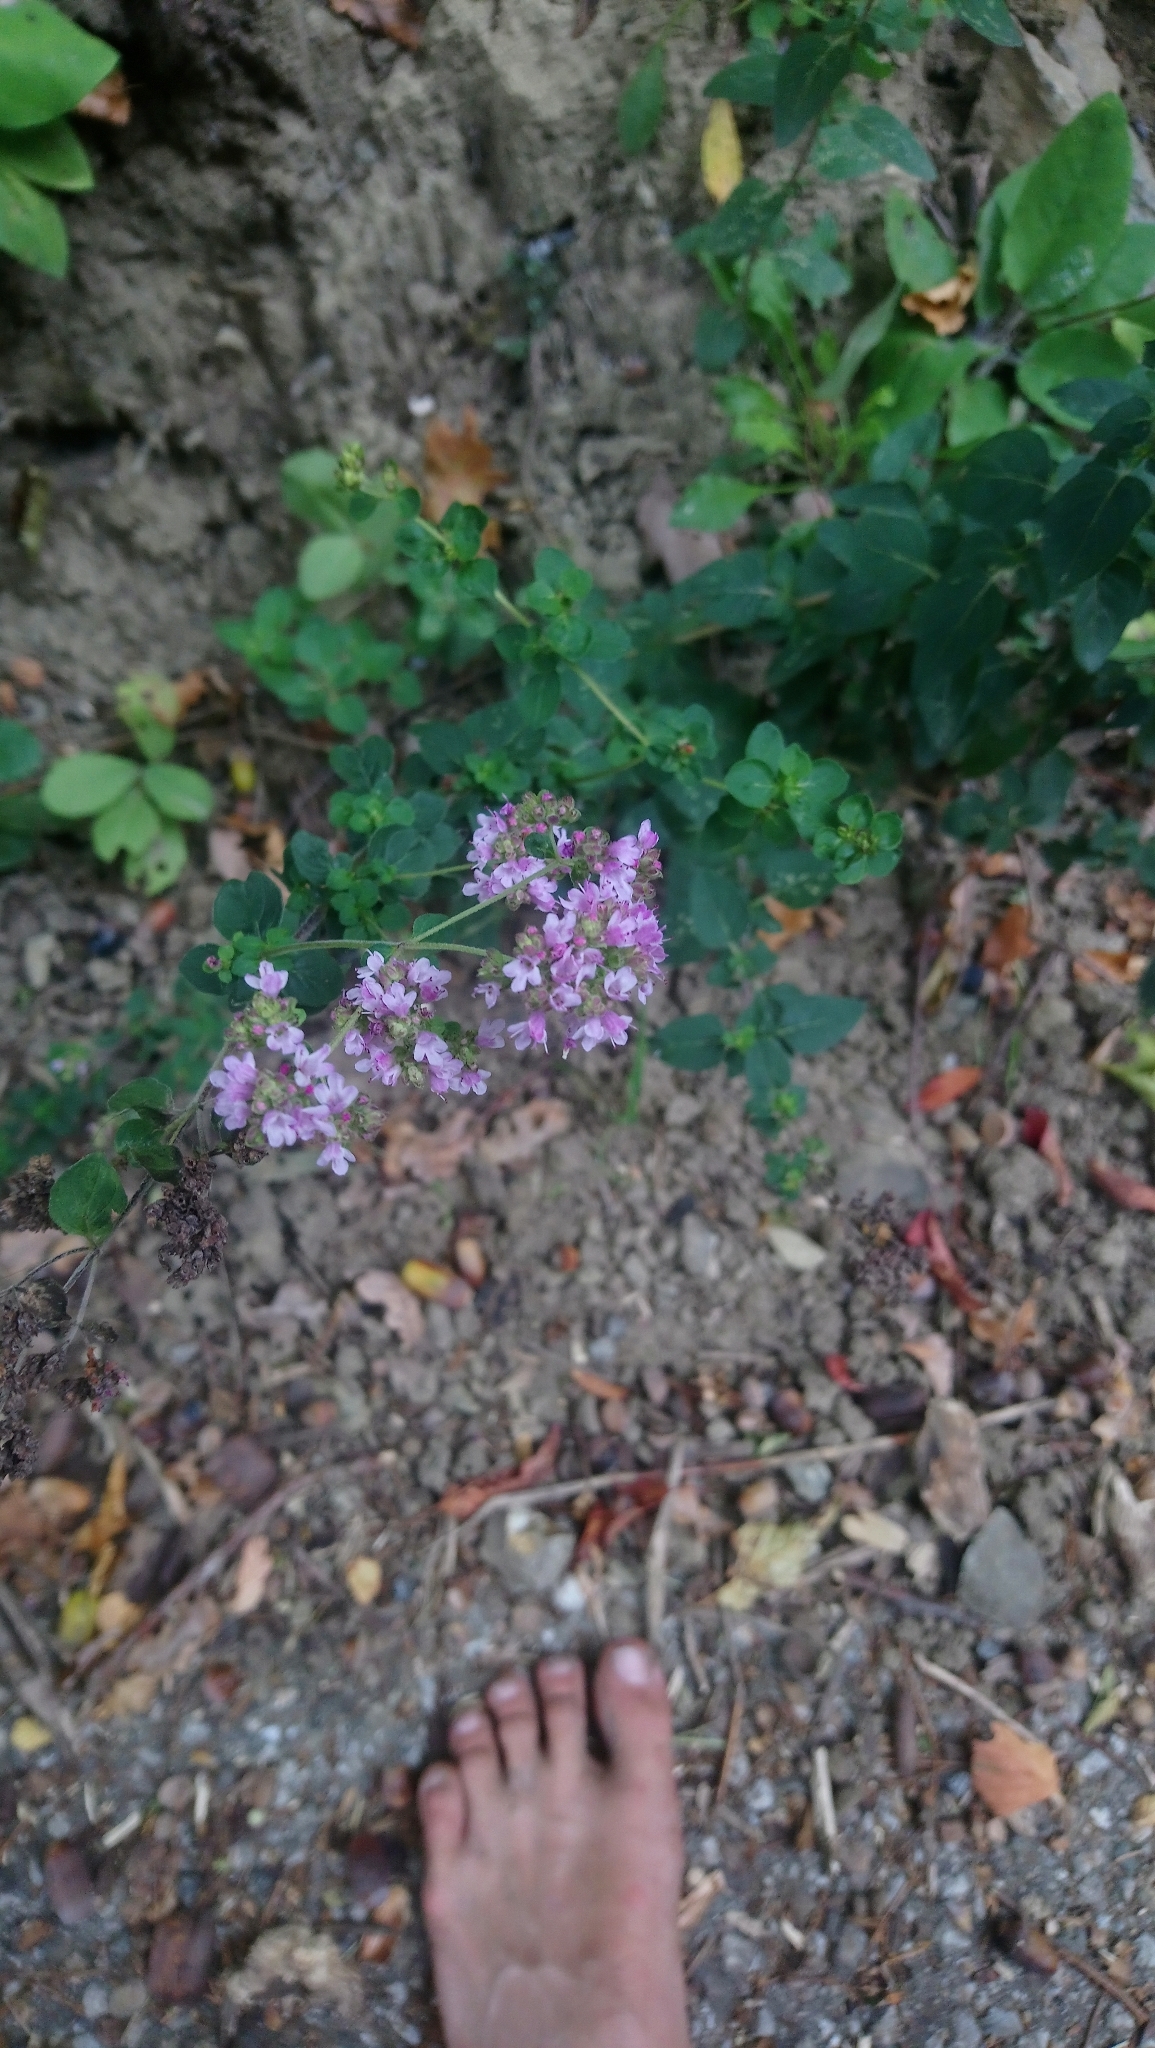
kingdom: Plantae
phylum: Tracheophyta
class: Magnoliopsida
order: Lamiales
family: Lamiaceae
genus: Origanum
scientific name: Origanum vulgare
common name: Wild marjoram
